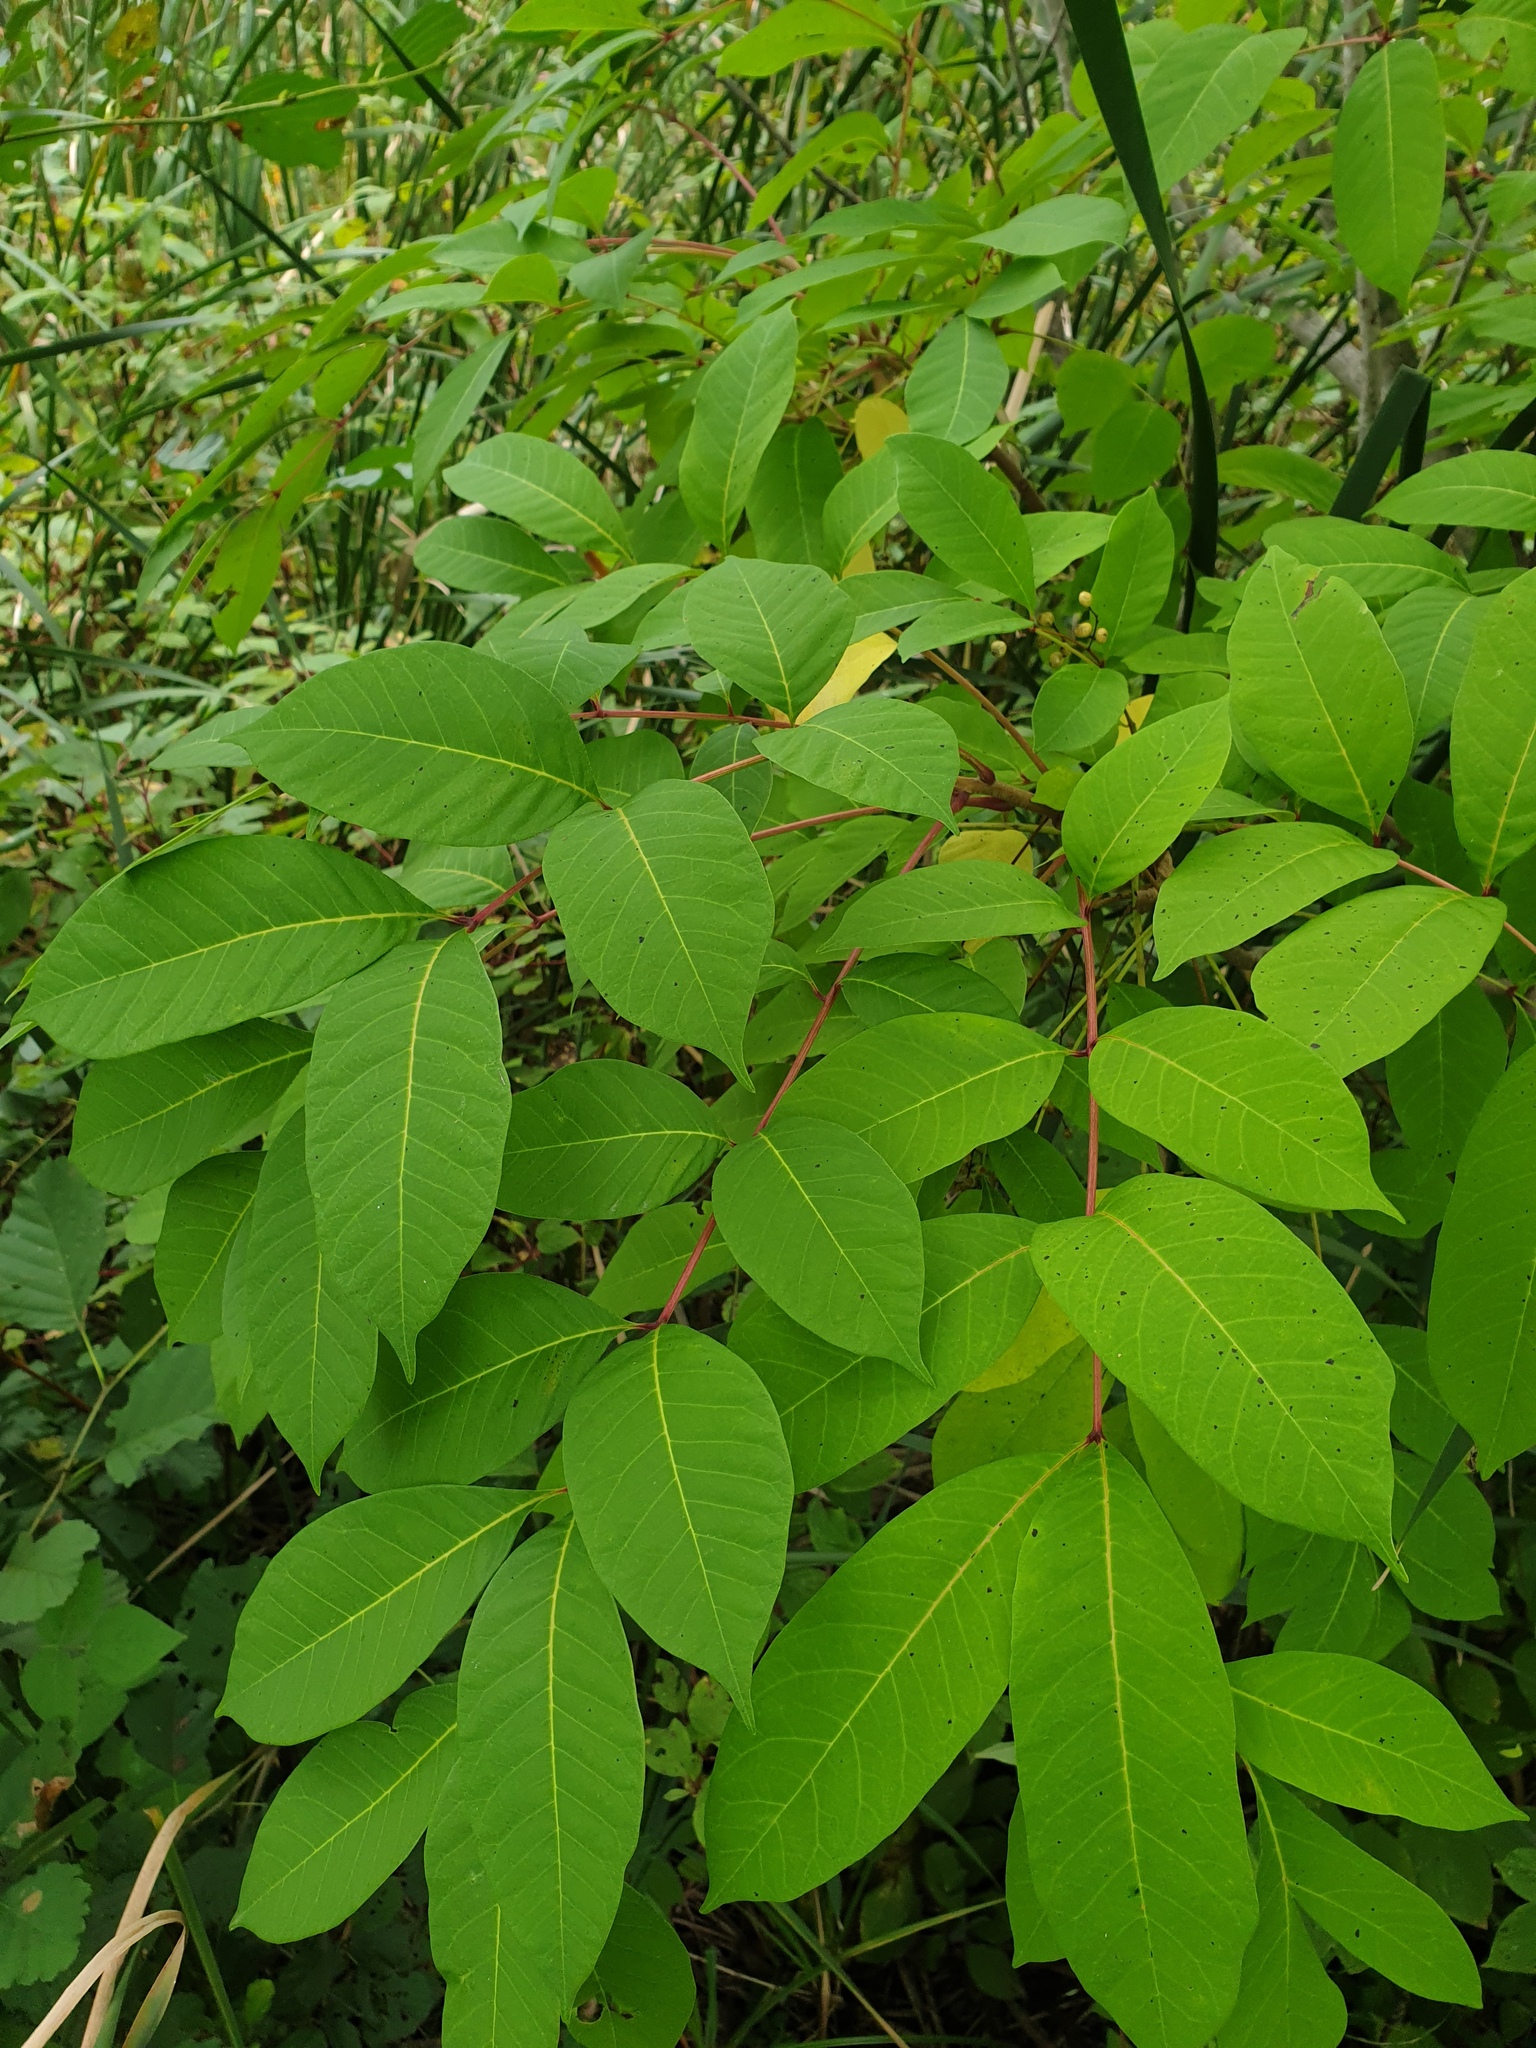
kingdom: Plantae
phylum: Tracheophyta
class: Magnoliopsida
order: Sapindales
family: Anacardiaceae
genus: Toxicodendron
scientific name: Toxicodendron vernix
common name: Poison sumac
